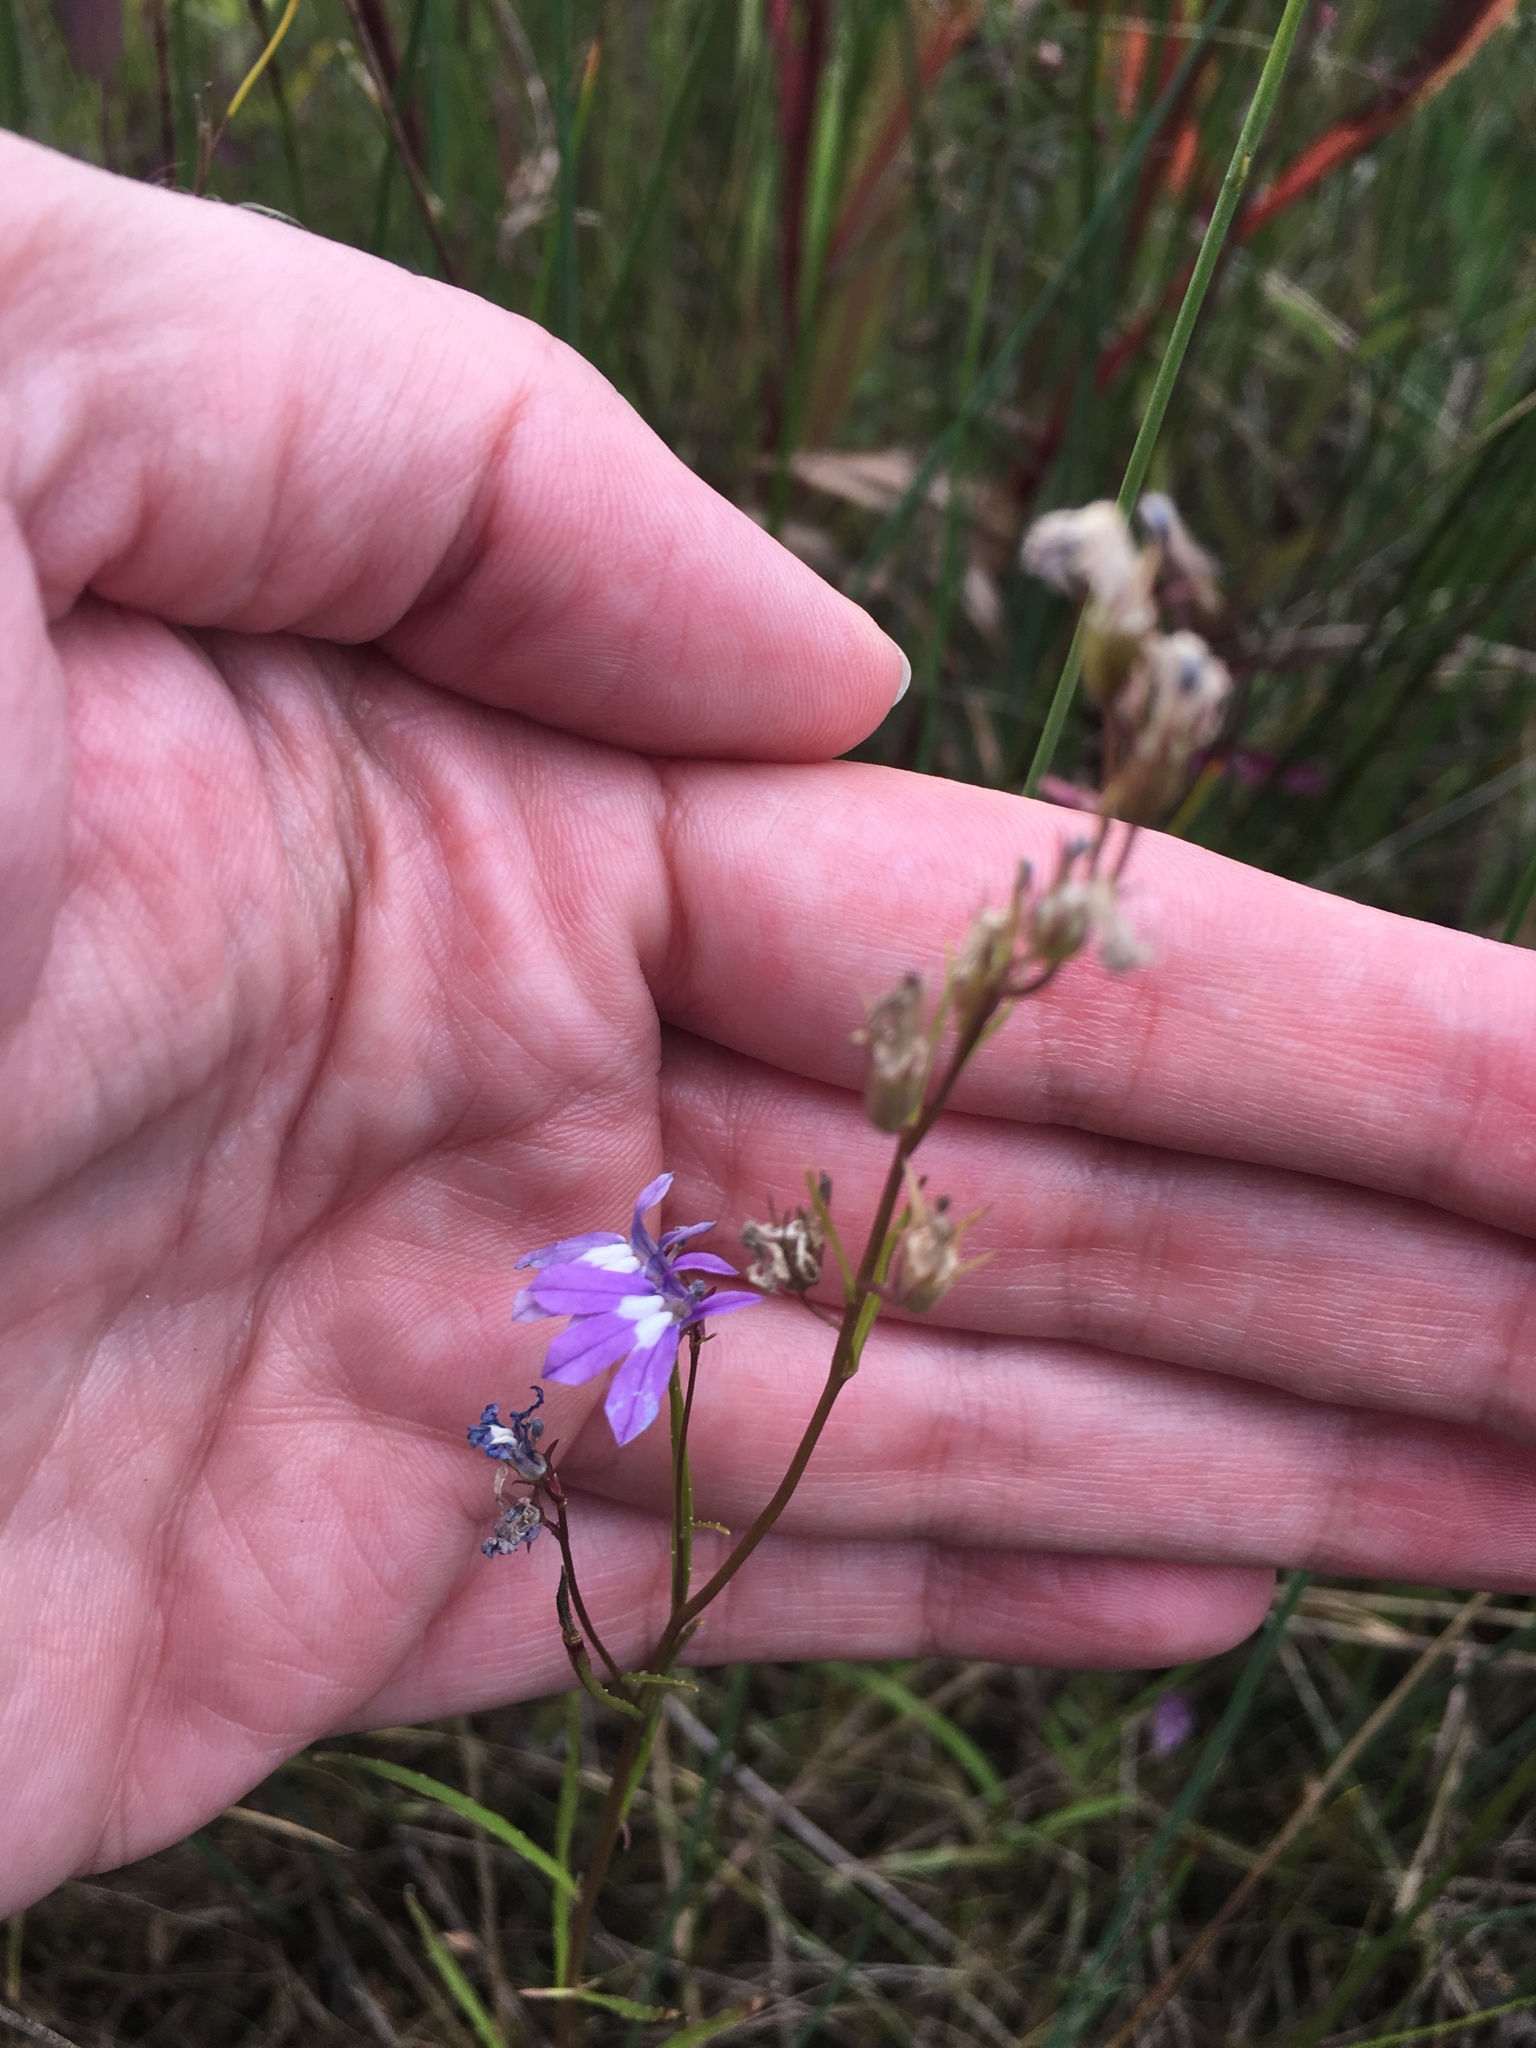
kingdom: Plantae
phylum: Tracheophyta
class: Magnoliopsida
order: Asterales
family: Campanulaceae
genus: Lobelia
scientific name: Lobelia kalmii
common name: Kalm's lobelia
